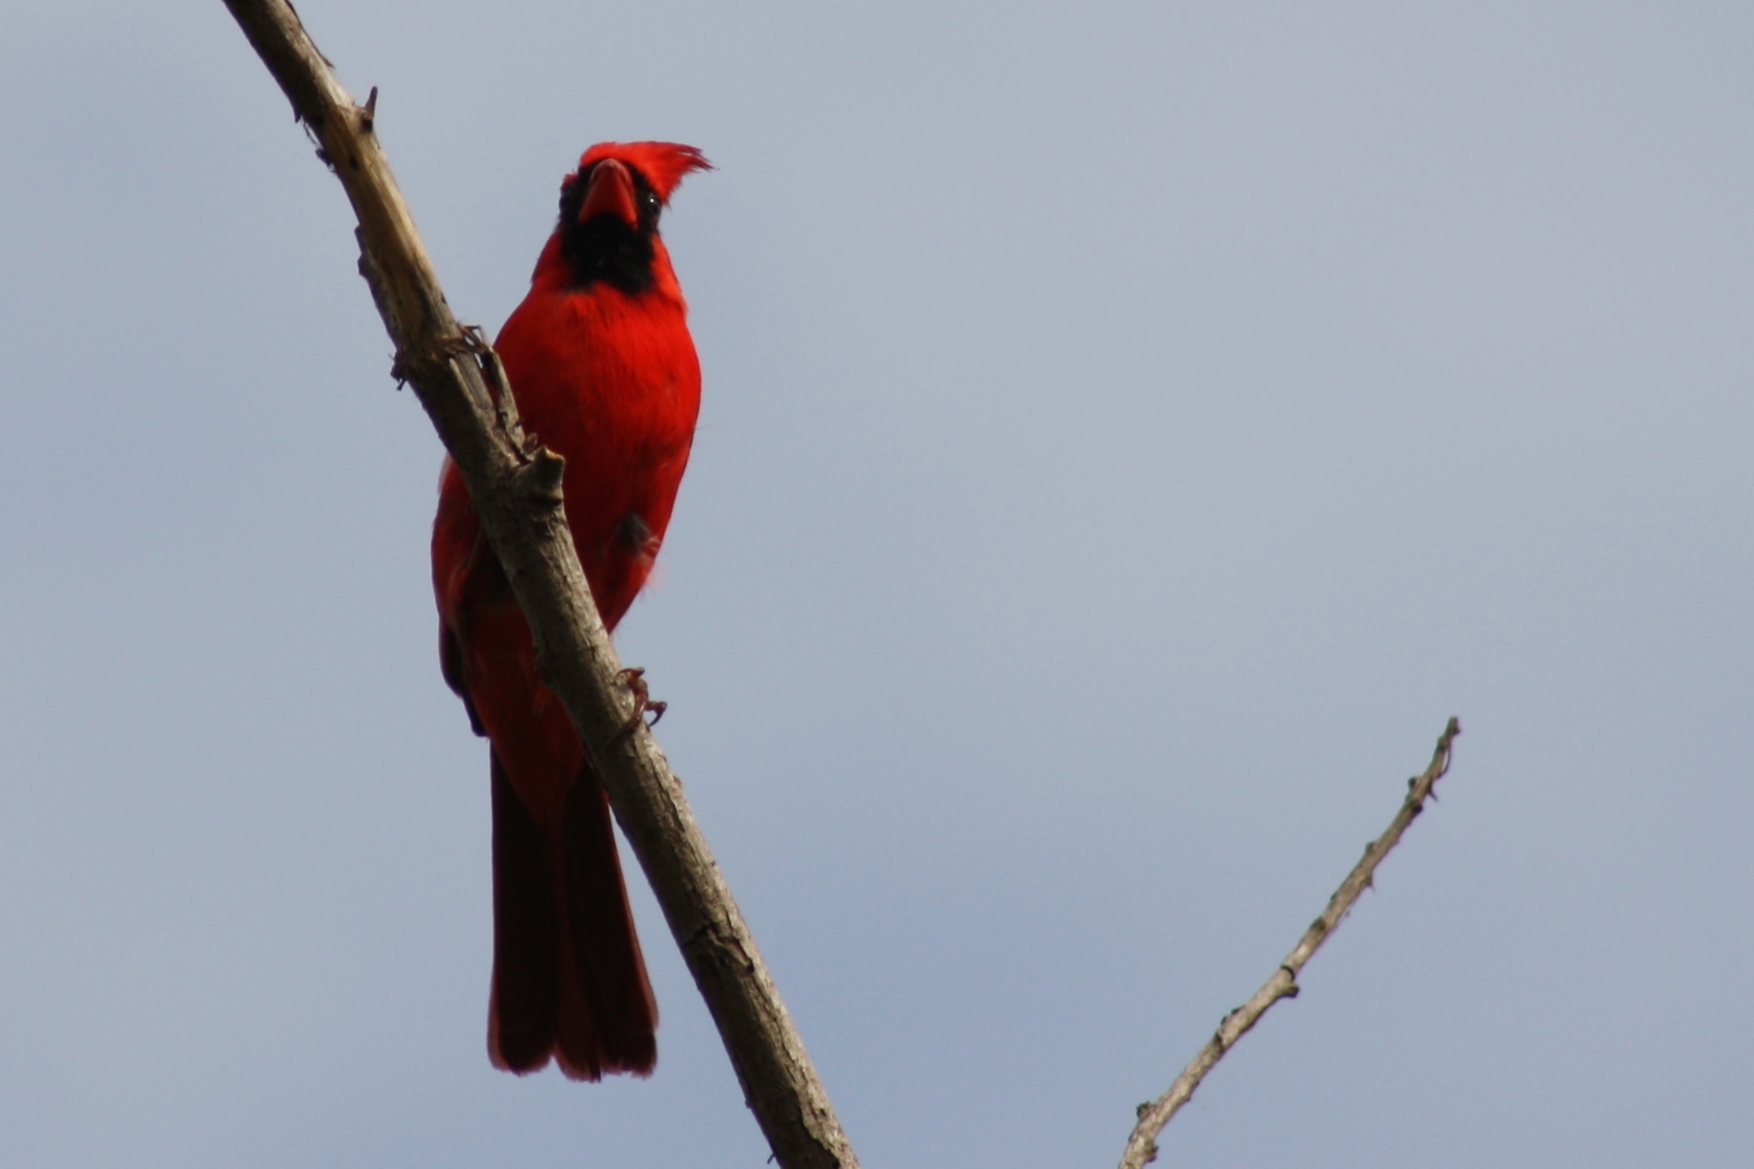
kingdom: Animalia
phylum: Chordata
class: Aves
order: Passeriformes
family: Cardinalidae
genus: Cardinalis
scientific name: Cardinalis cardinalis
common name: Northern cardinal
